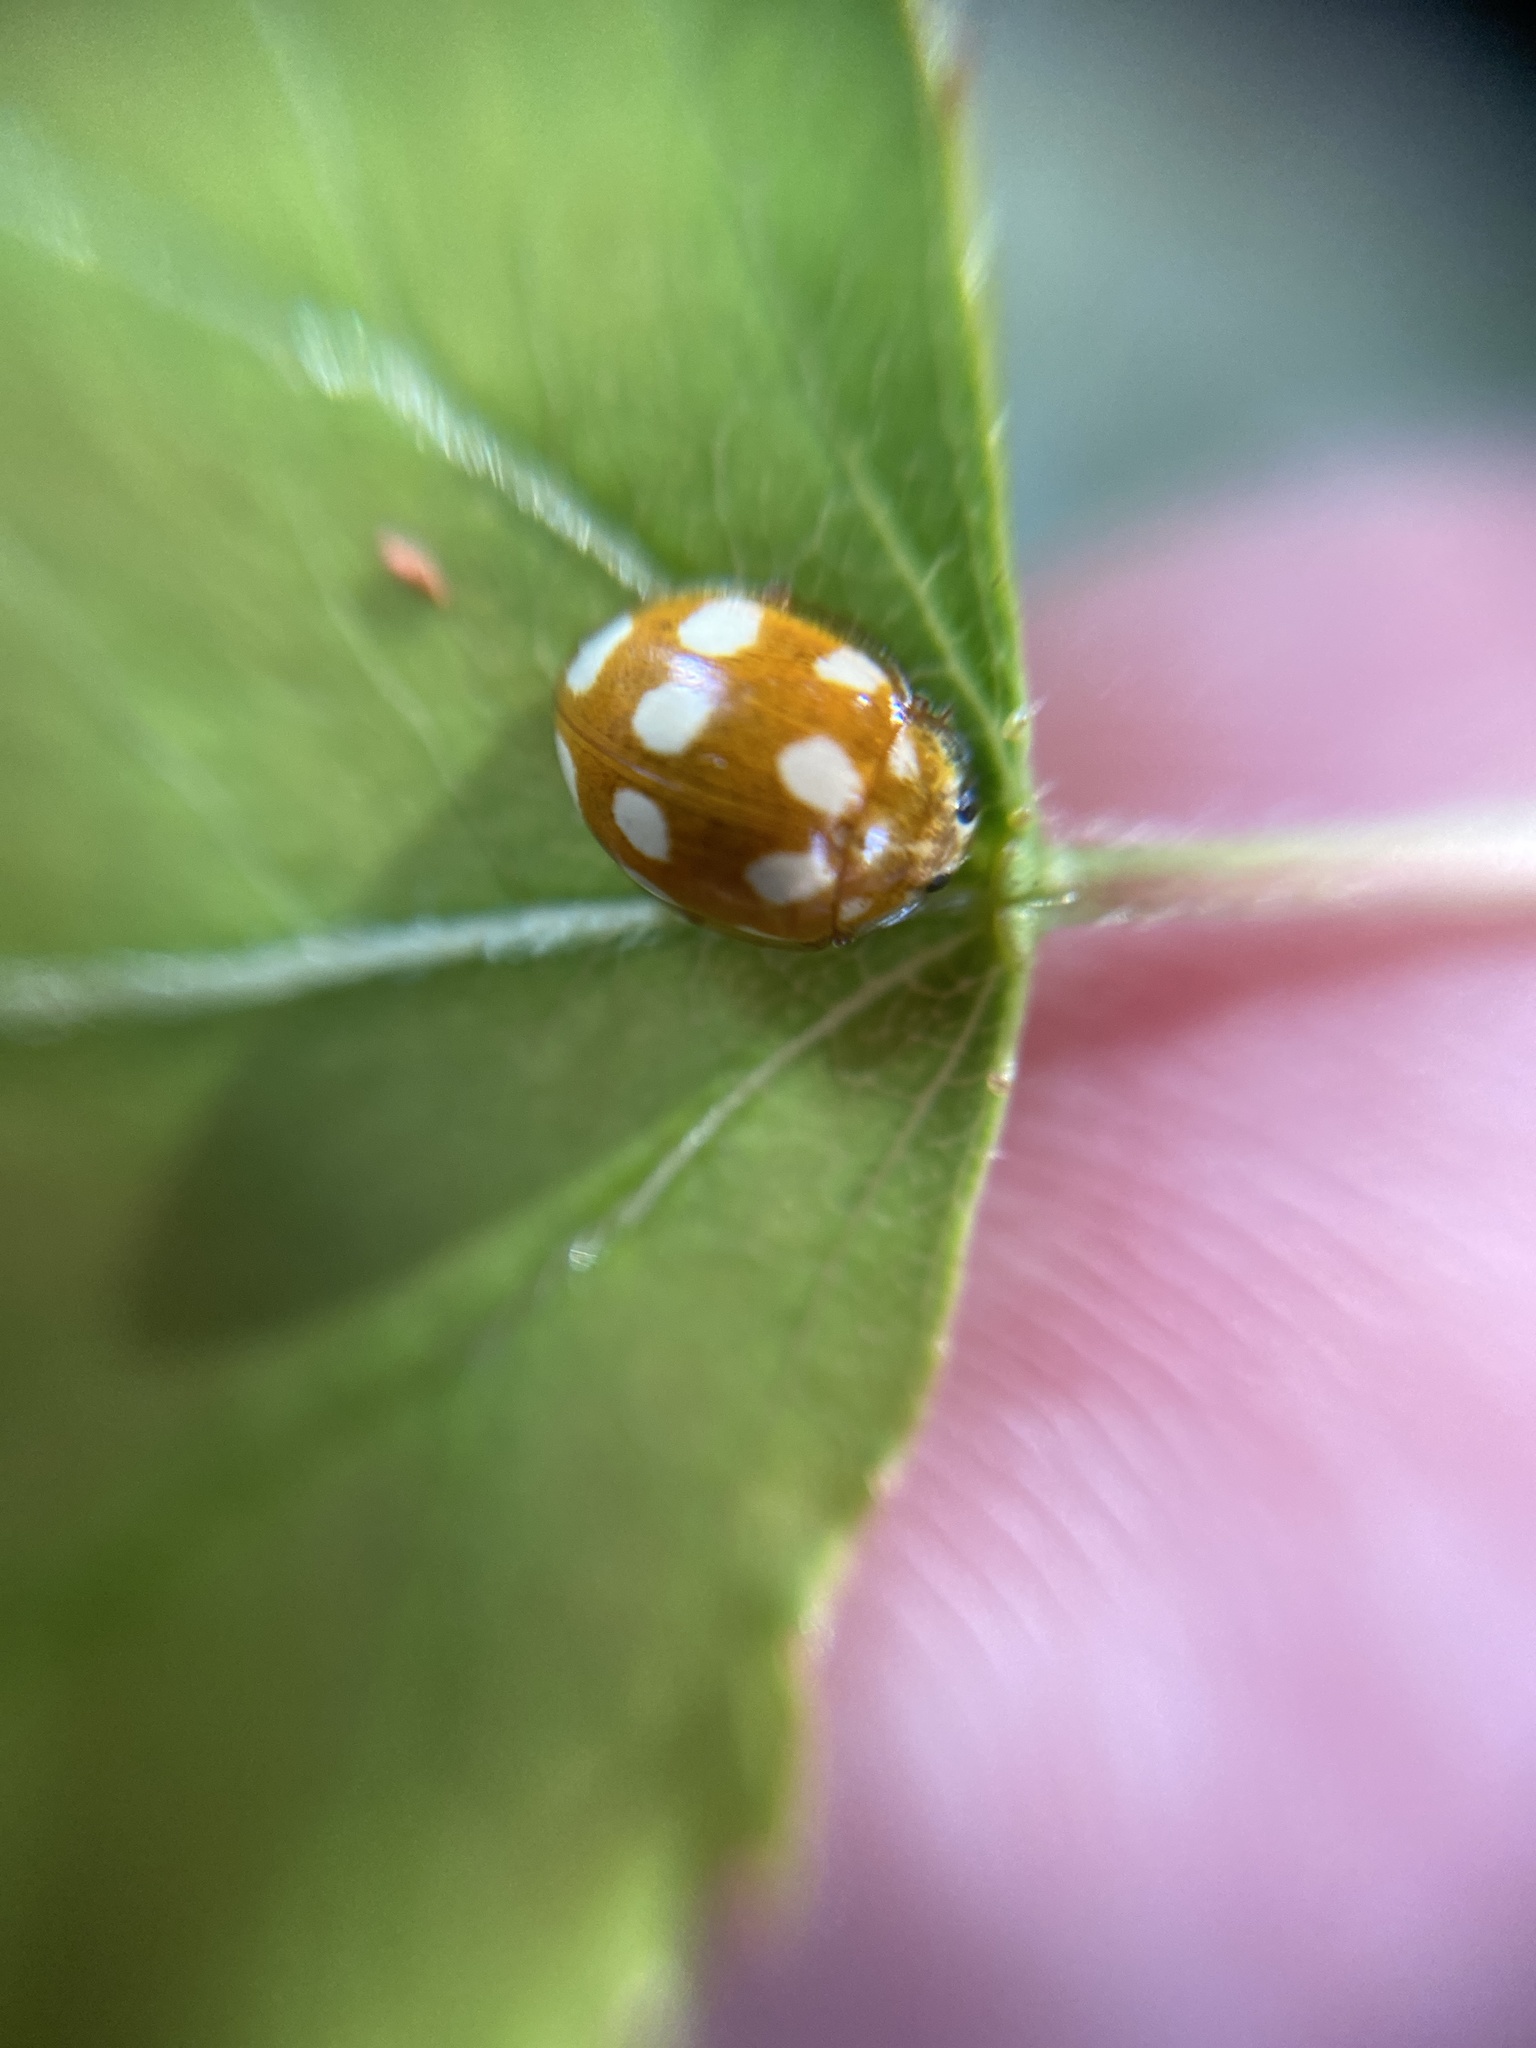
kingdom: Animalia
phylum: Arthropoda
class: Insecta
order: Coleoptera
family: Coccinellidae
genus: Calvia
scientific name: Calvia decemguttata
